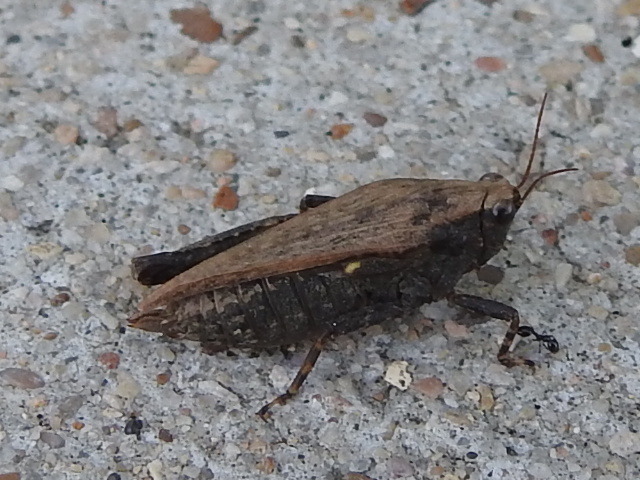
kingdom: Animalia
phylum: Arthropoda
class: Insecta
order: Orthoptera
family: Tetrigidae
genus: Tettigidea
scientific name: Tettigidea laterale
